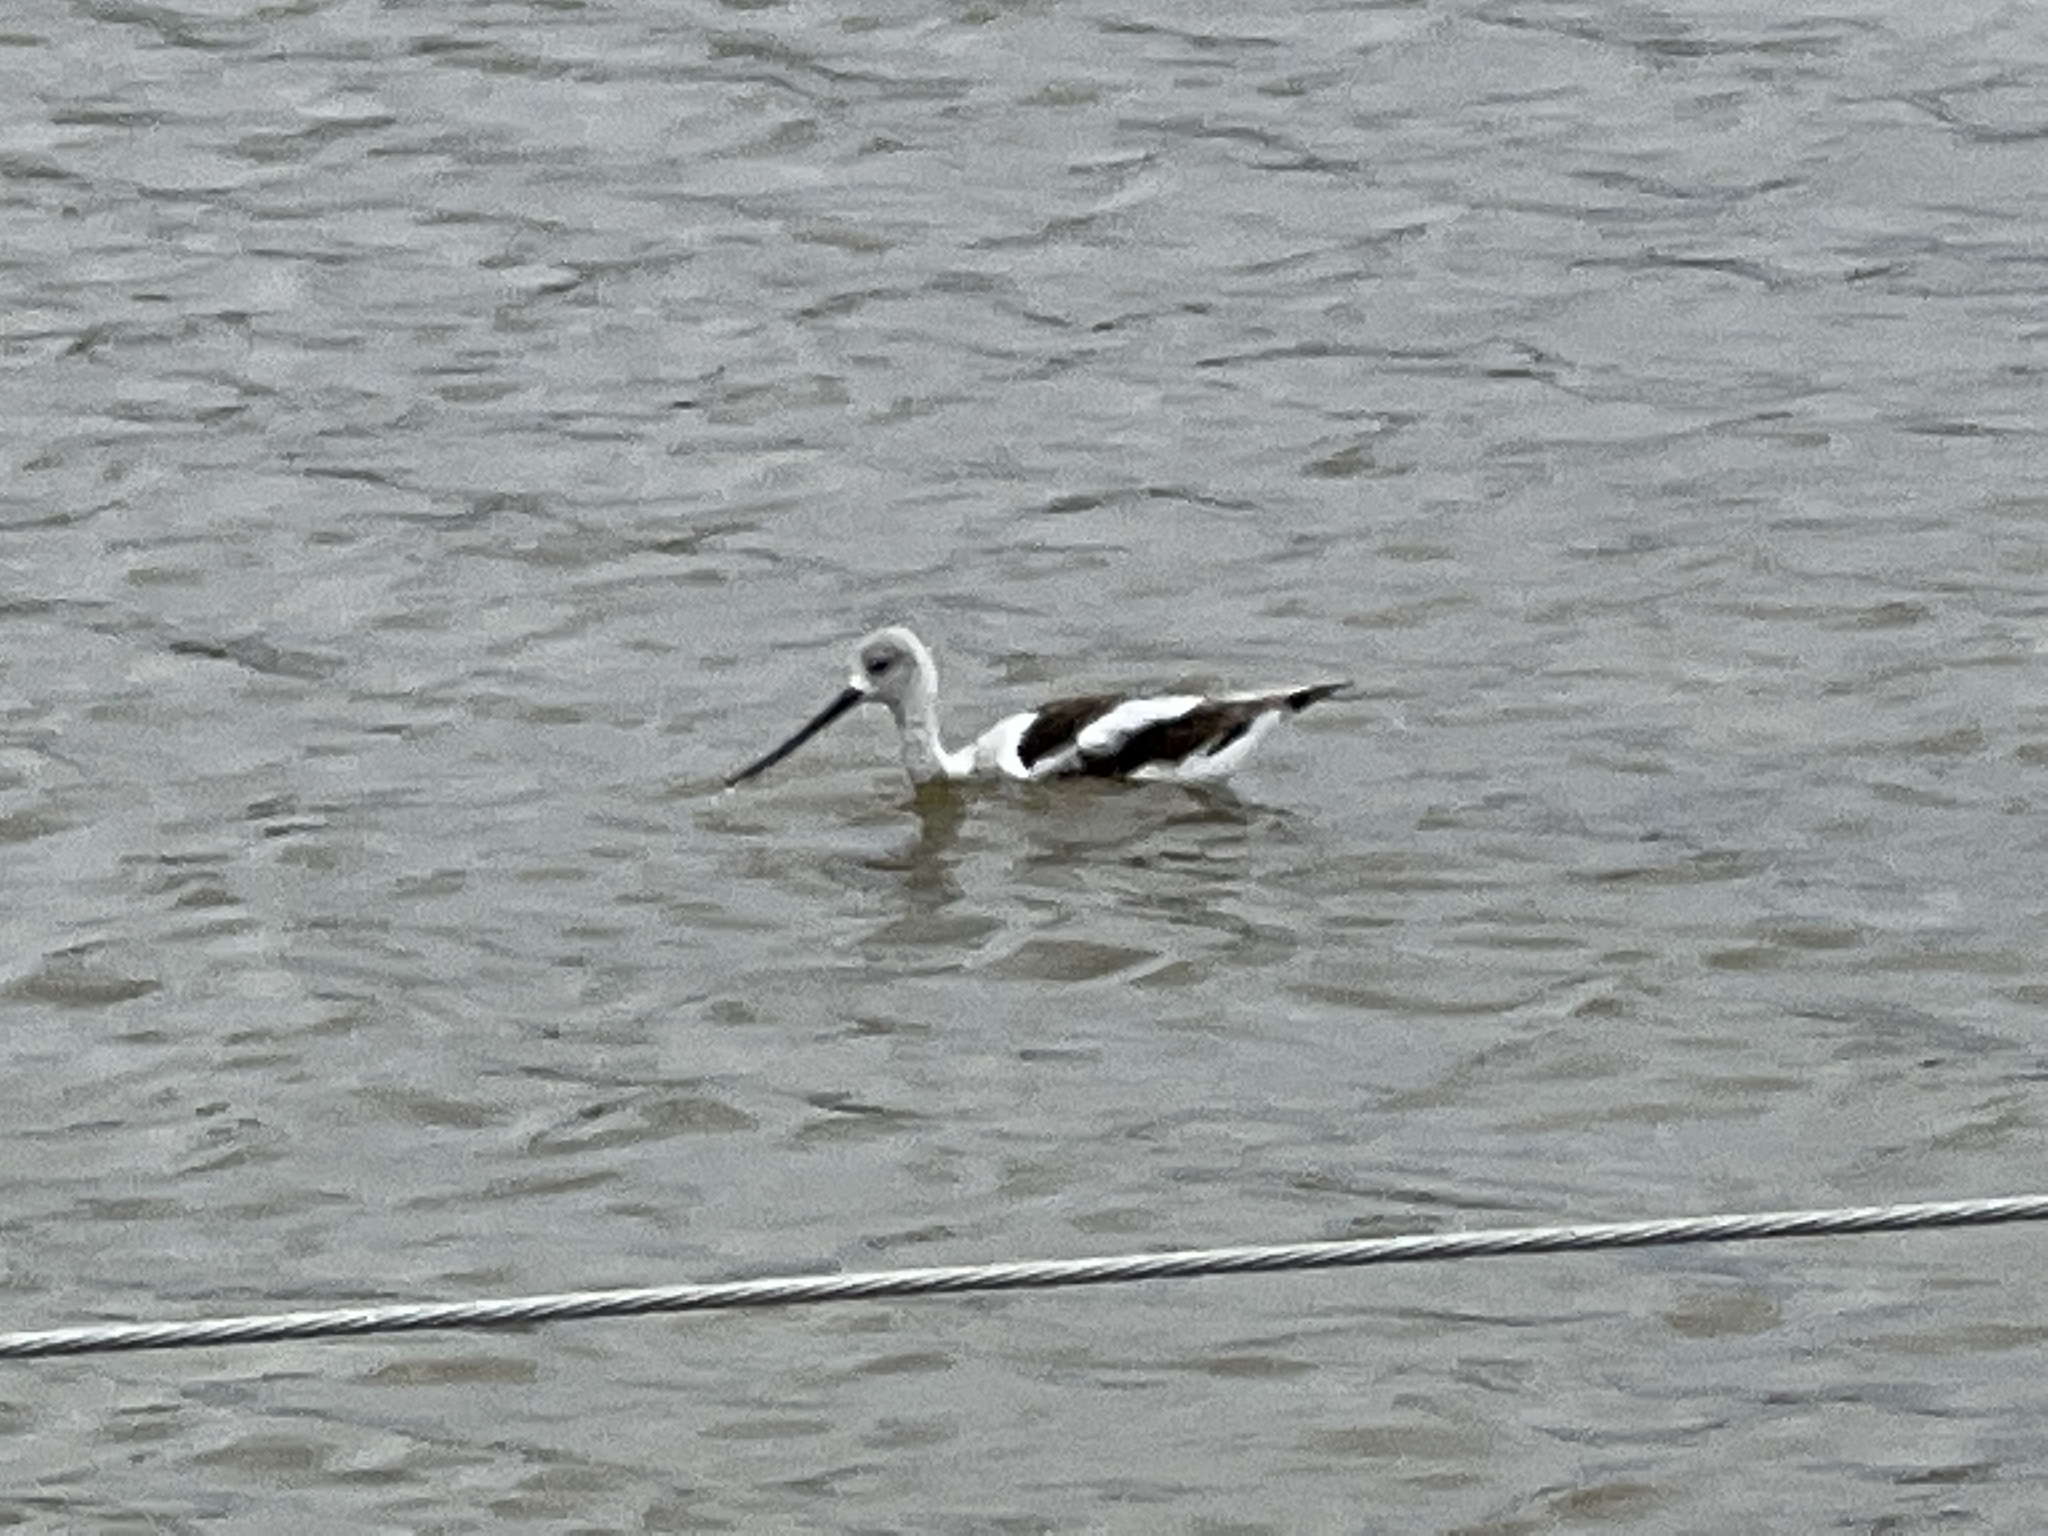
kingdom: Animalia
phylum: Chordata
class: Aves
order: Charadriiformes
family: Recurvirostridae
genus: Recurvirostra
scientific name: Recurvirostra americana
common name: American avocet
